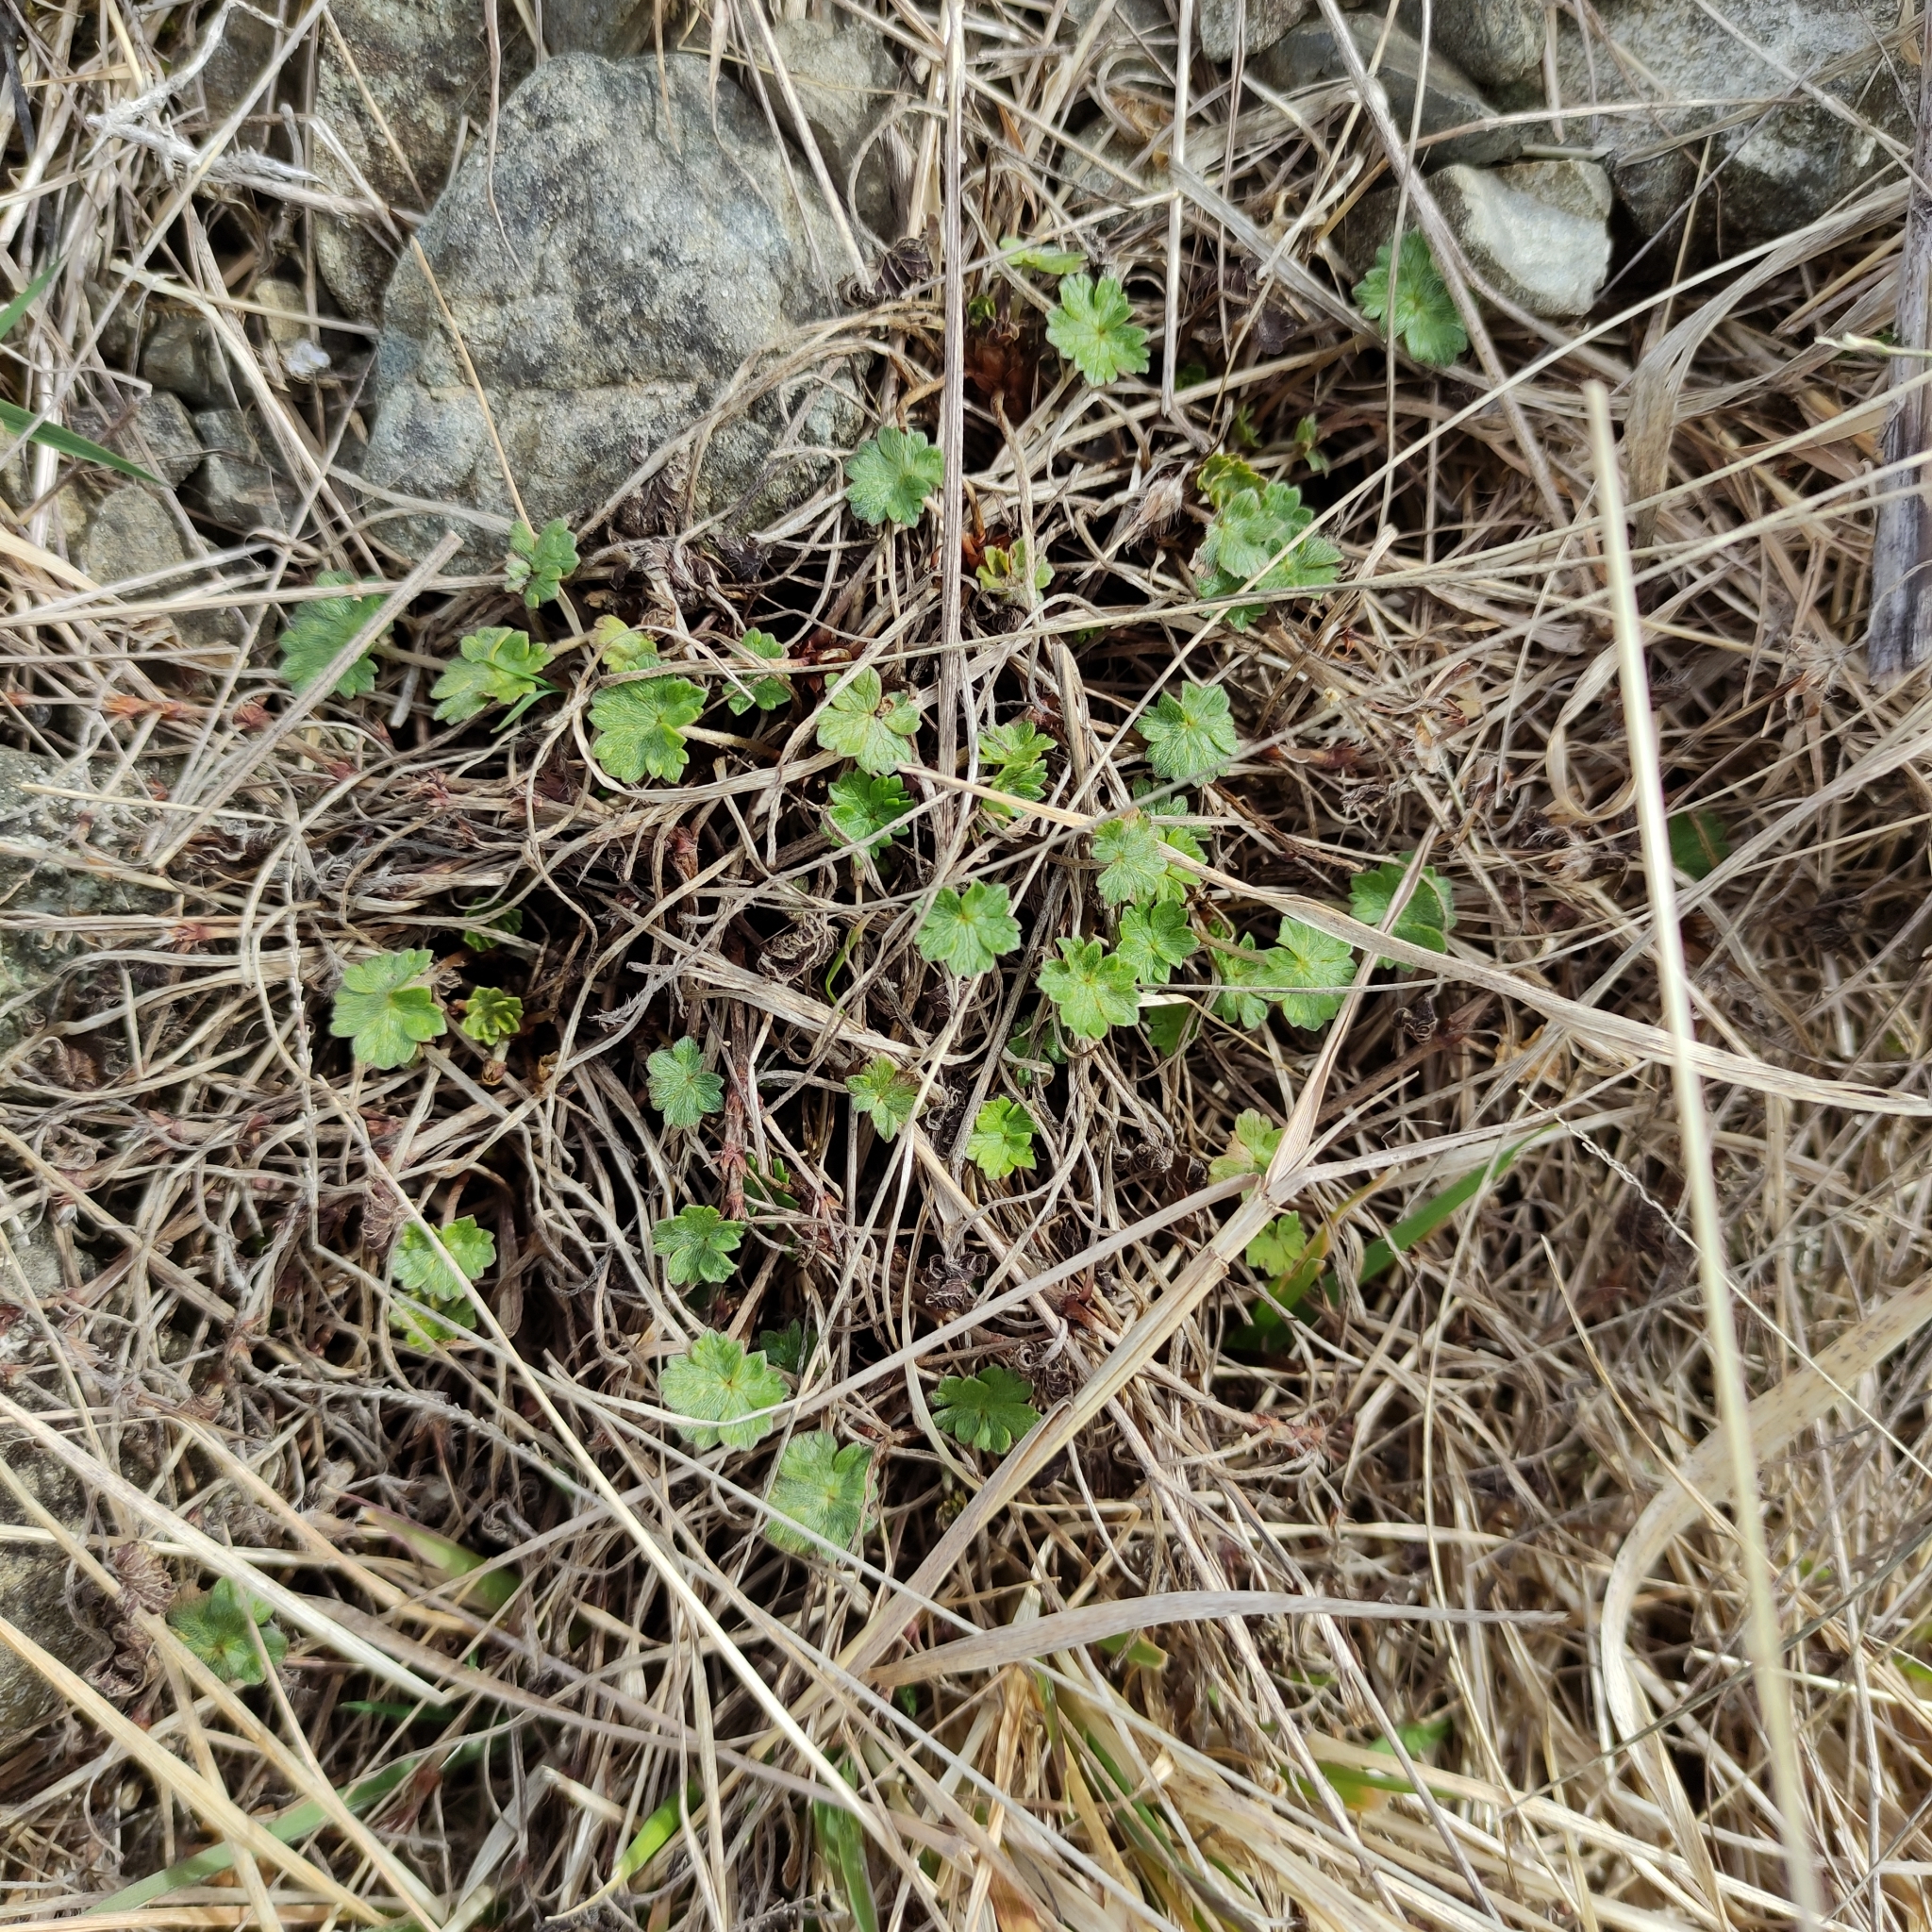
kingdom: Plantae
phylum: Tracheophyta
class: Magnoliopsida
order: Geraniales
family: Geraniaceae
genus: Geranium
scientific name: Geranium brevicaule
